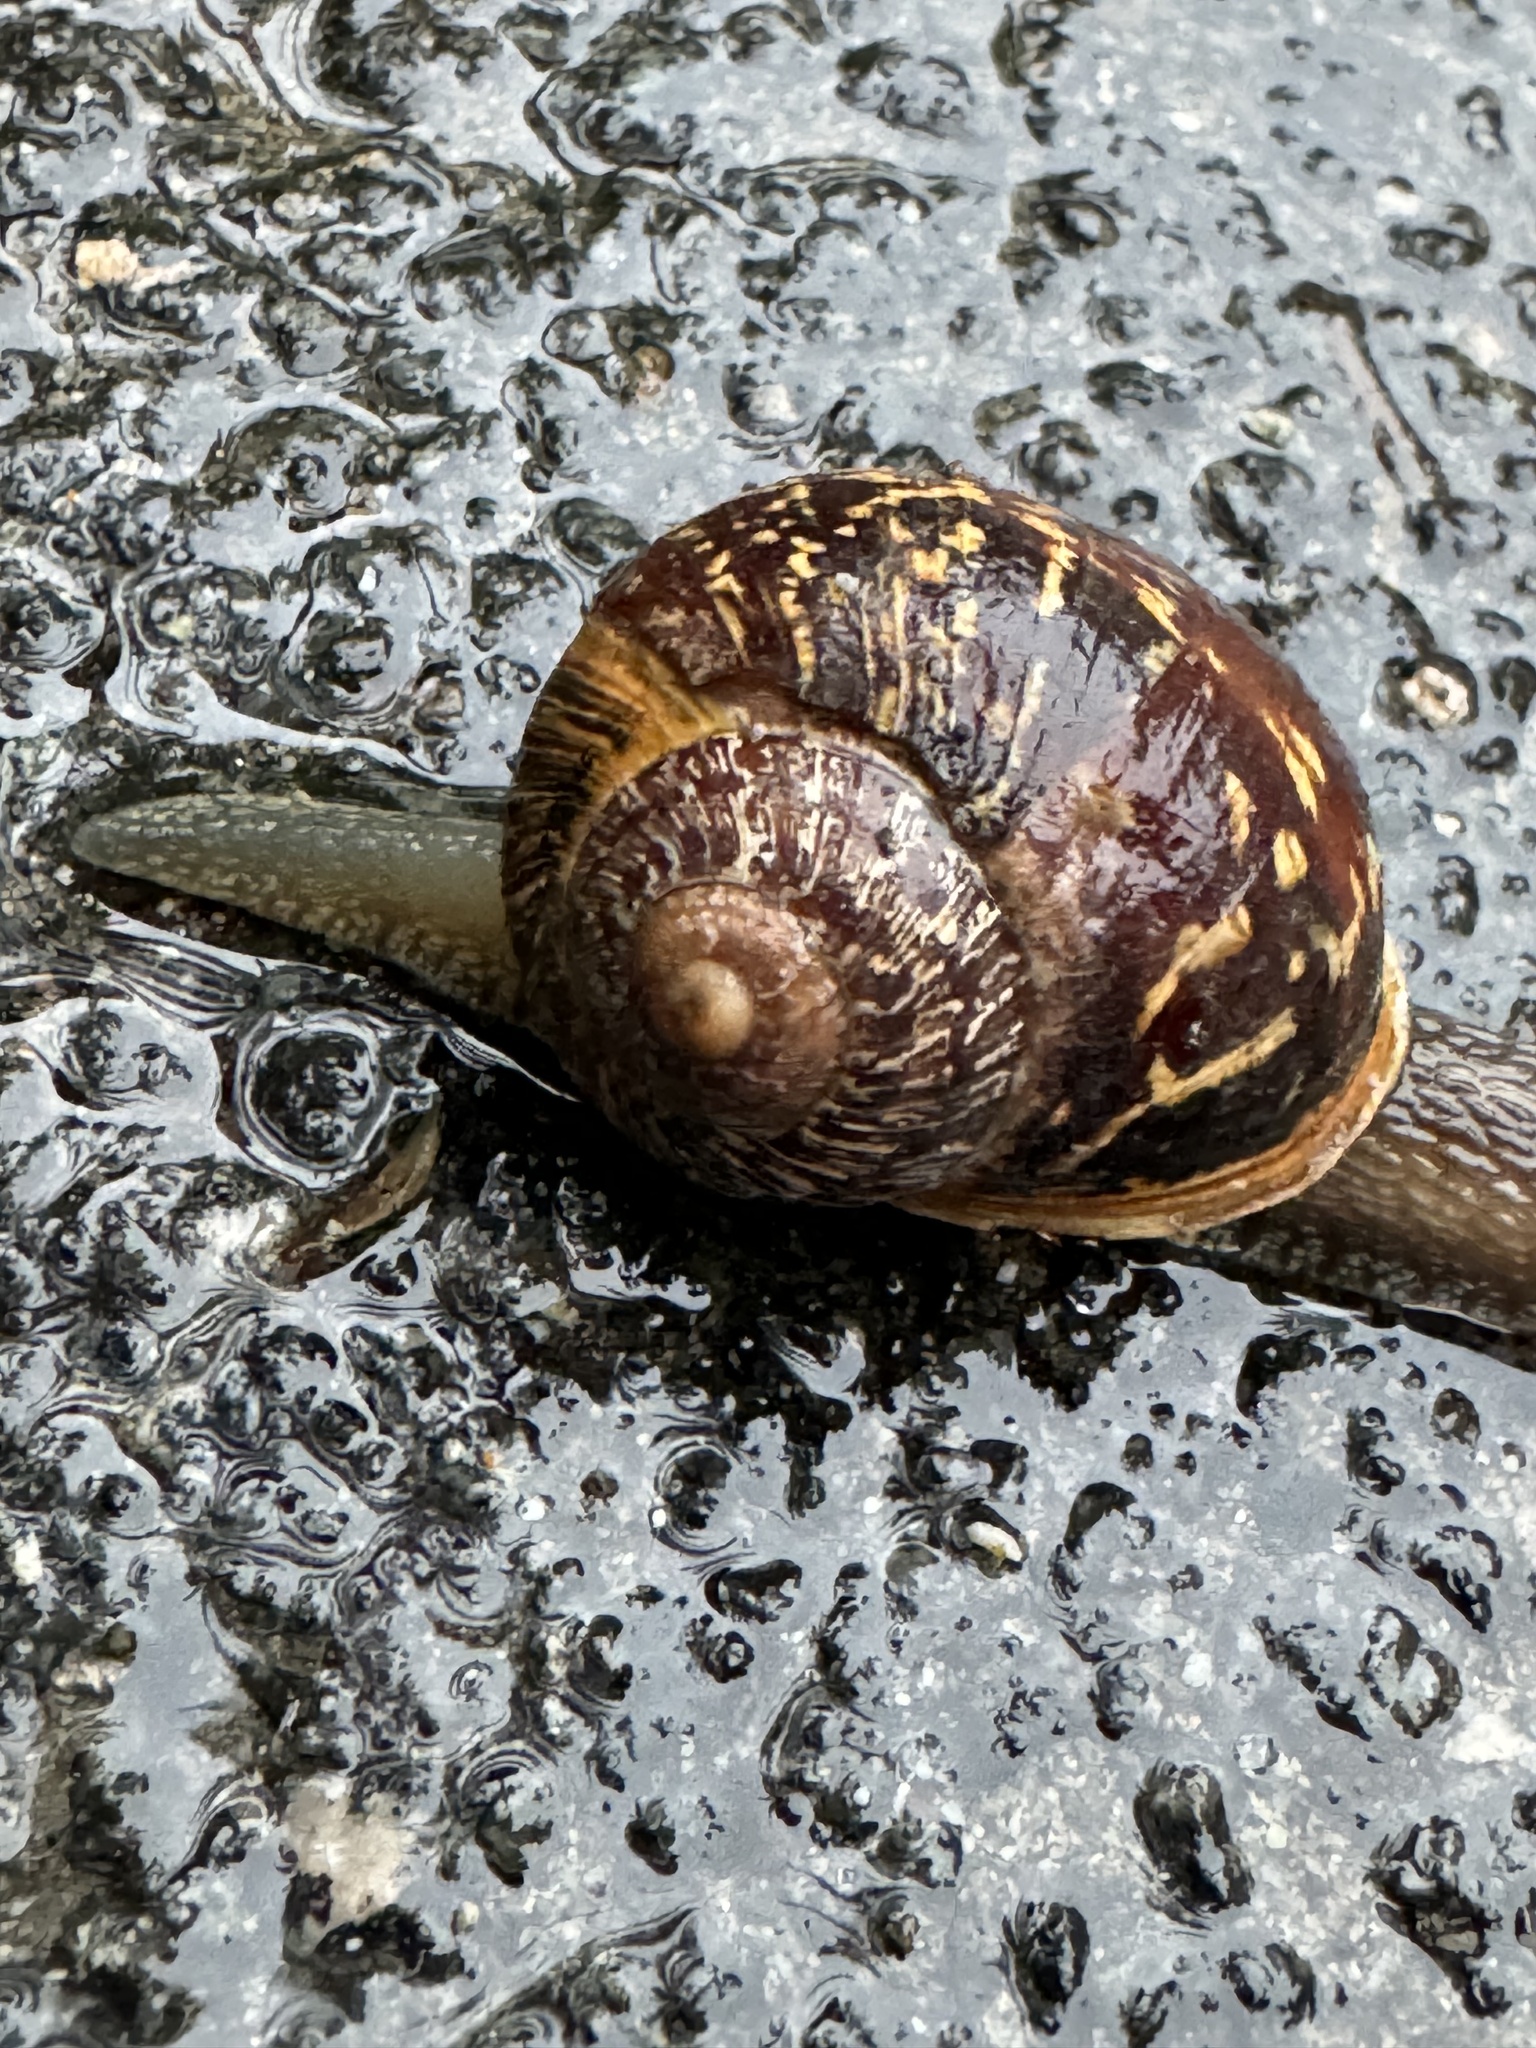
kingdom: Animalia
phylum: Mollusca
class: Gastropoda
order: Stylommatophora
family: Helicidae
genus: Cornu
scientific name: Cornu aspersum
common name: Brown garden snail
